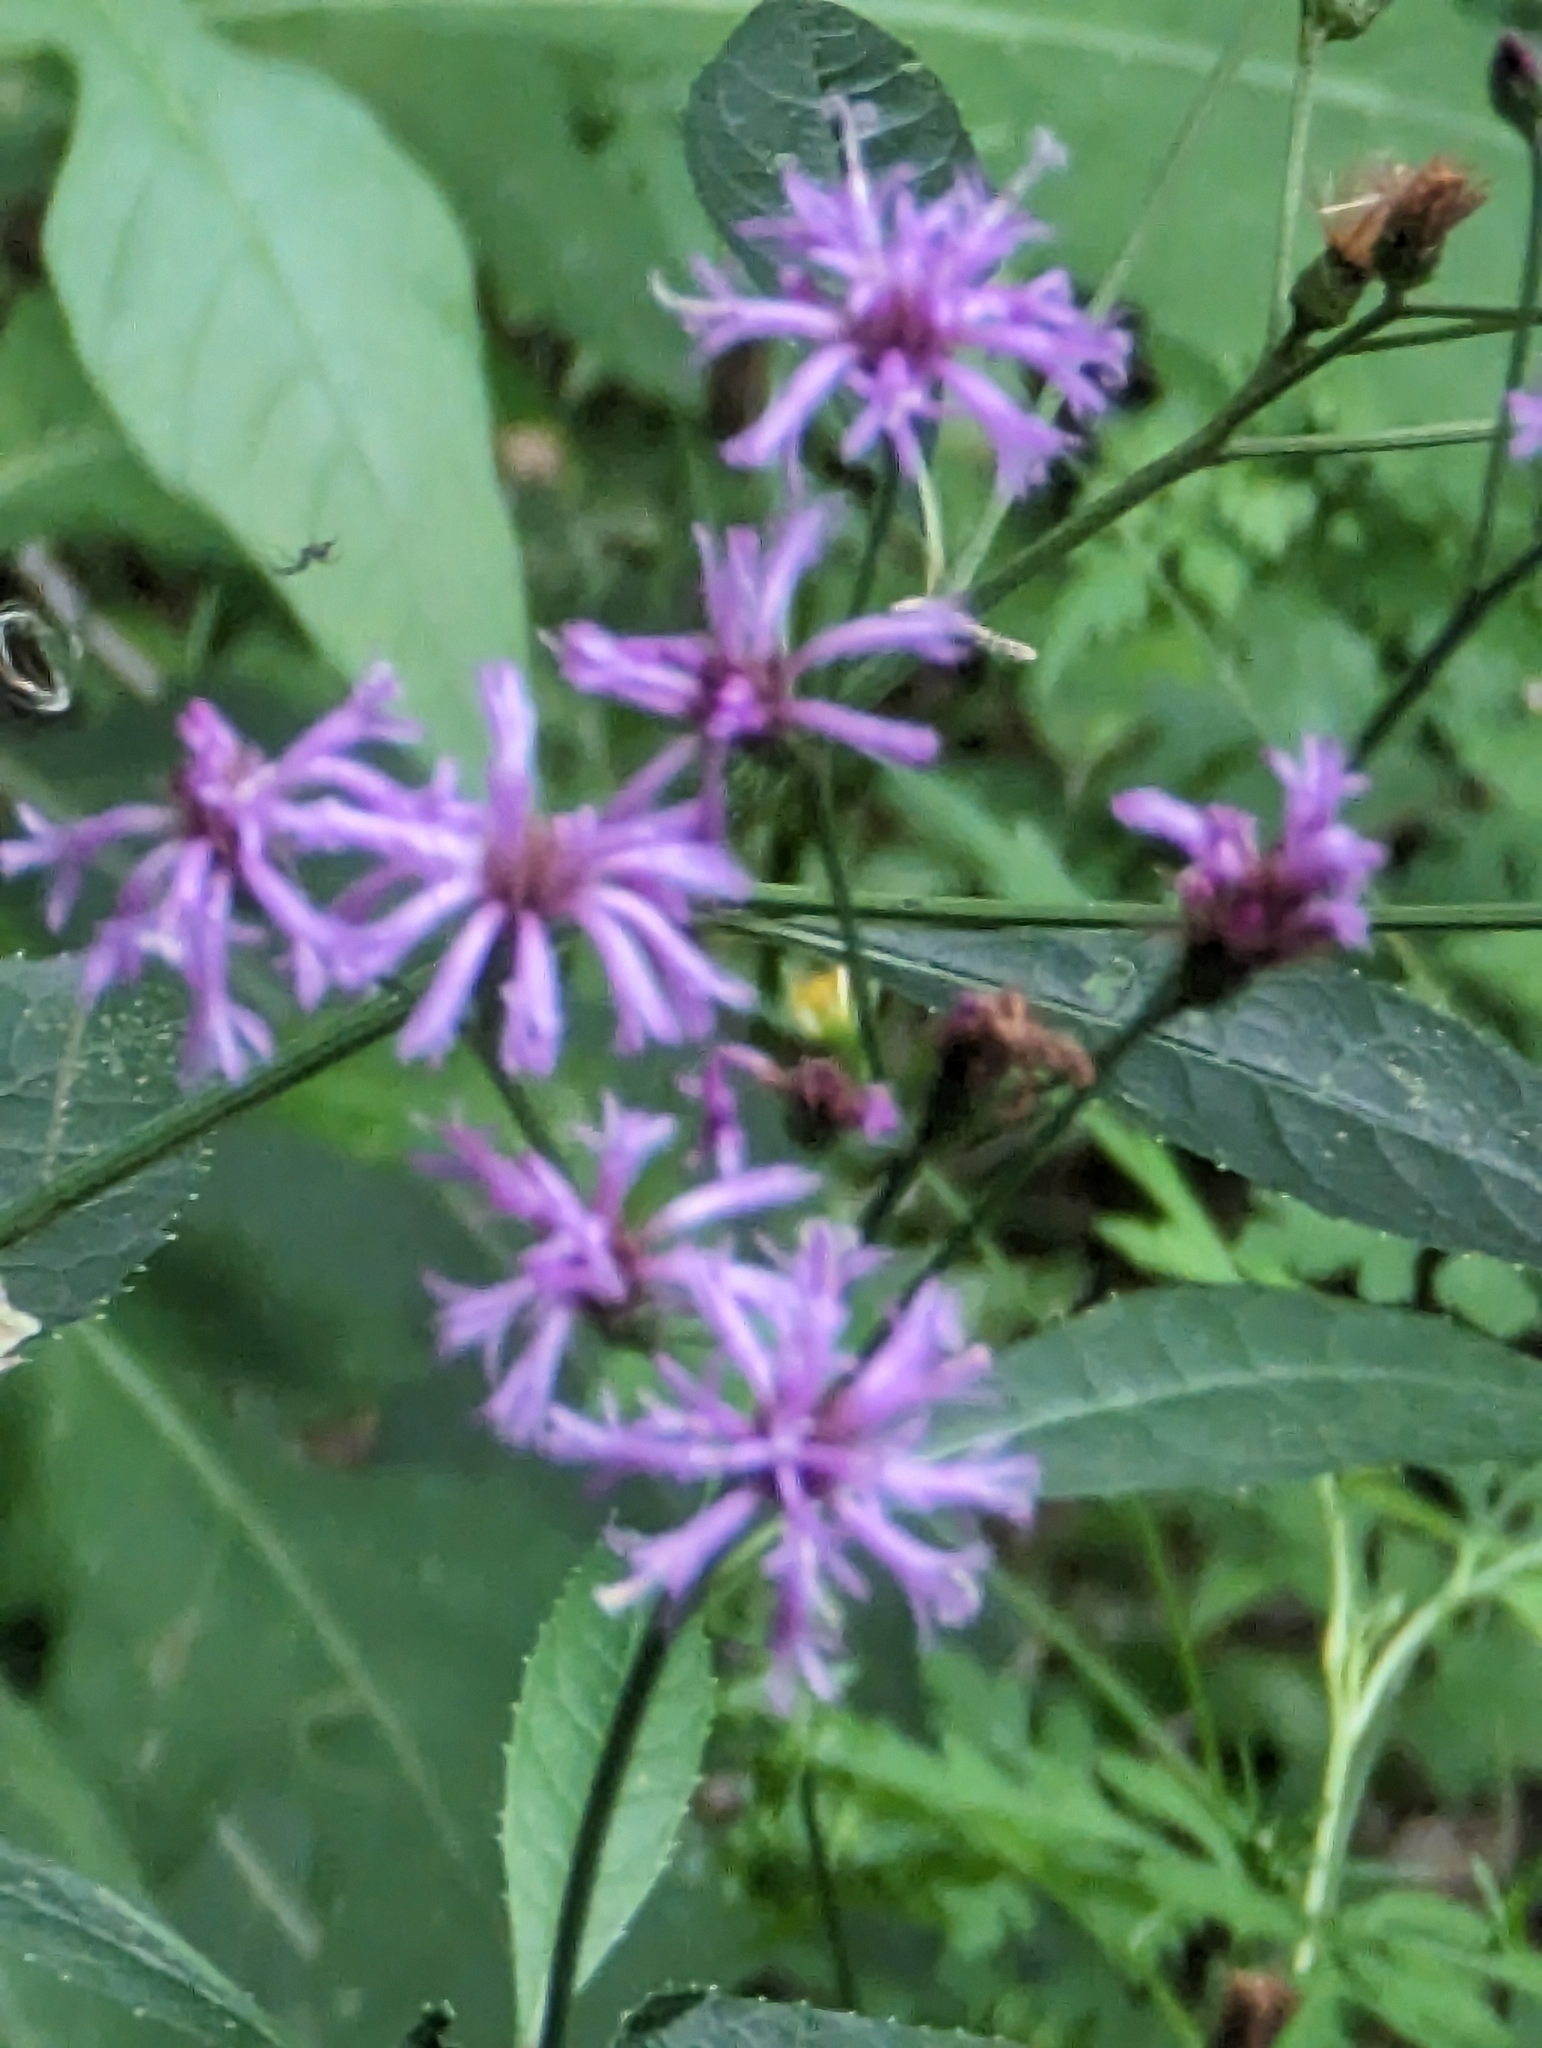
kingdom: Plantae
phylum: Tracheophyta
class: Magnoliopsida
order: Asterales
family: Asteraceae
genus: Vernonia
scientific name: Vernonia gigantea
